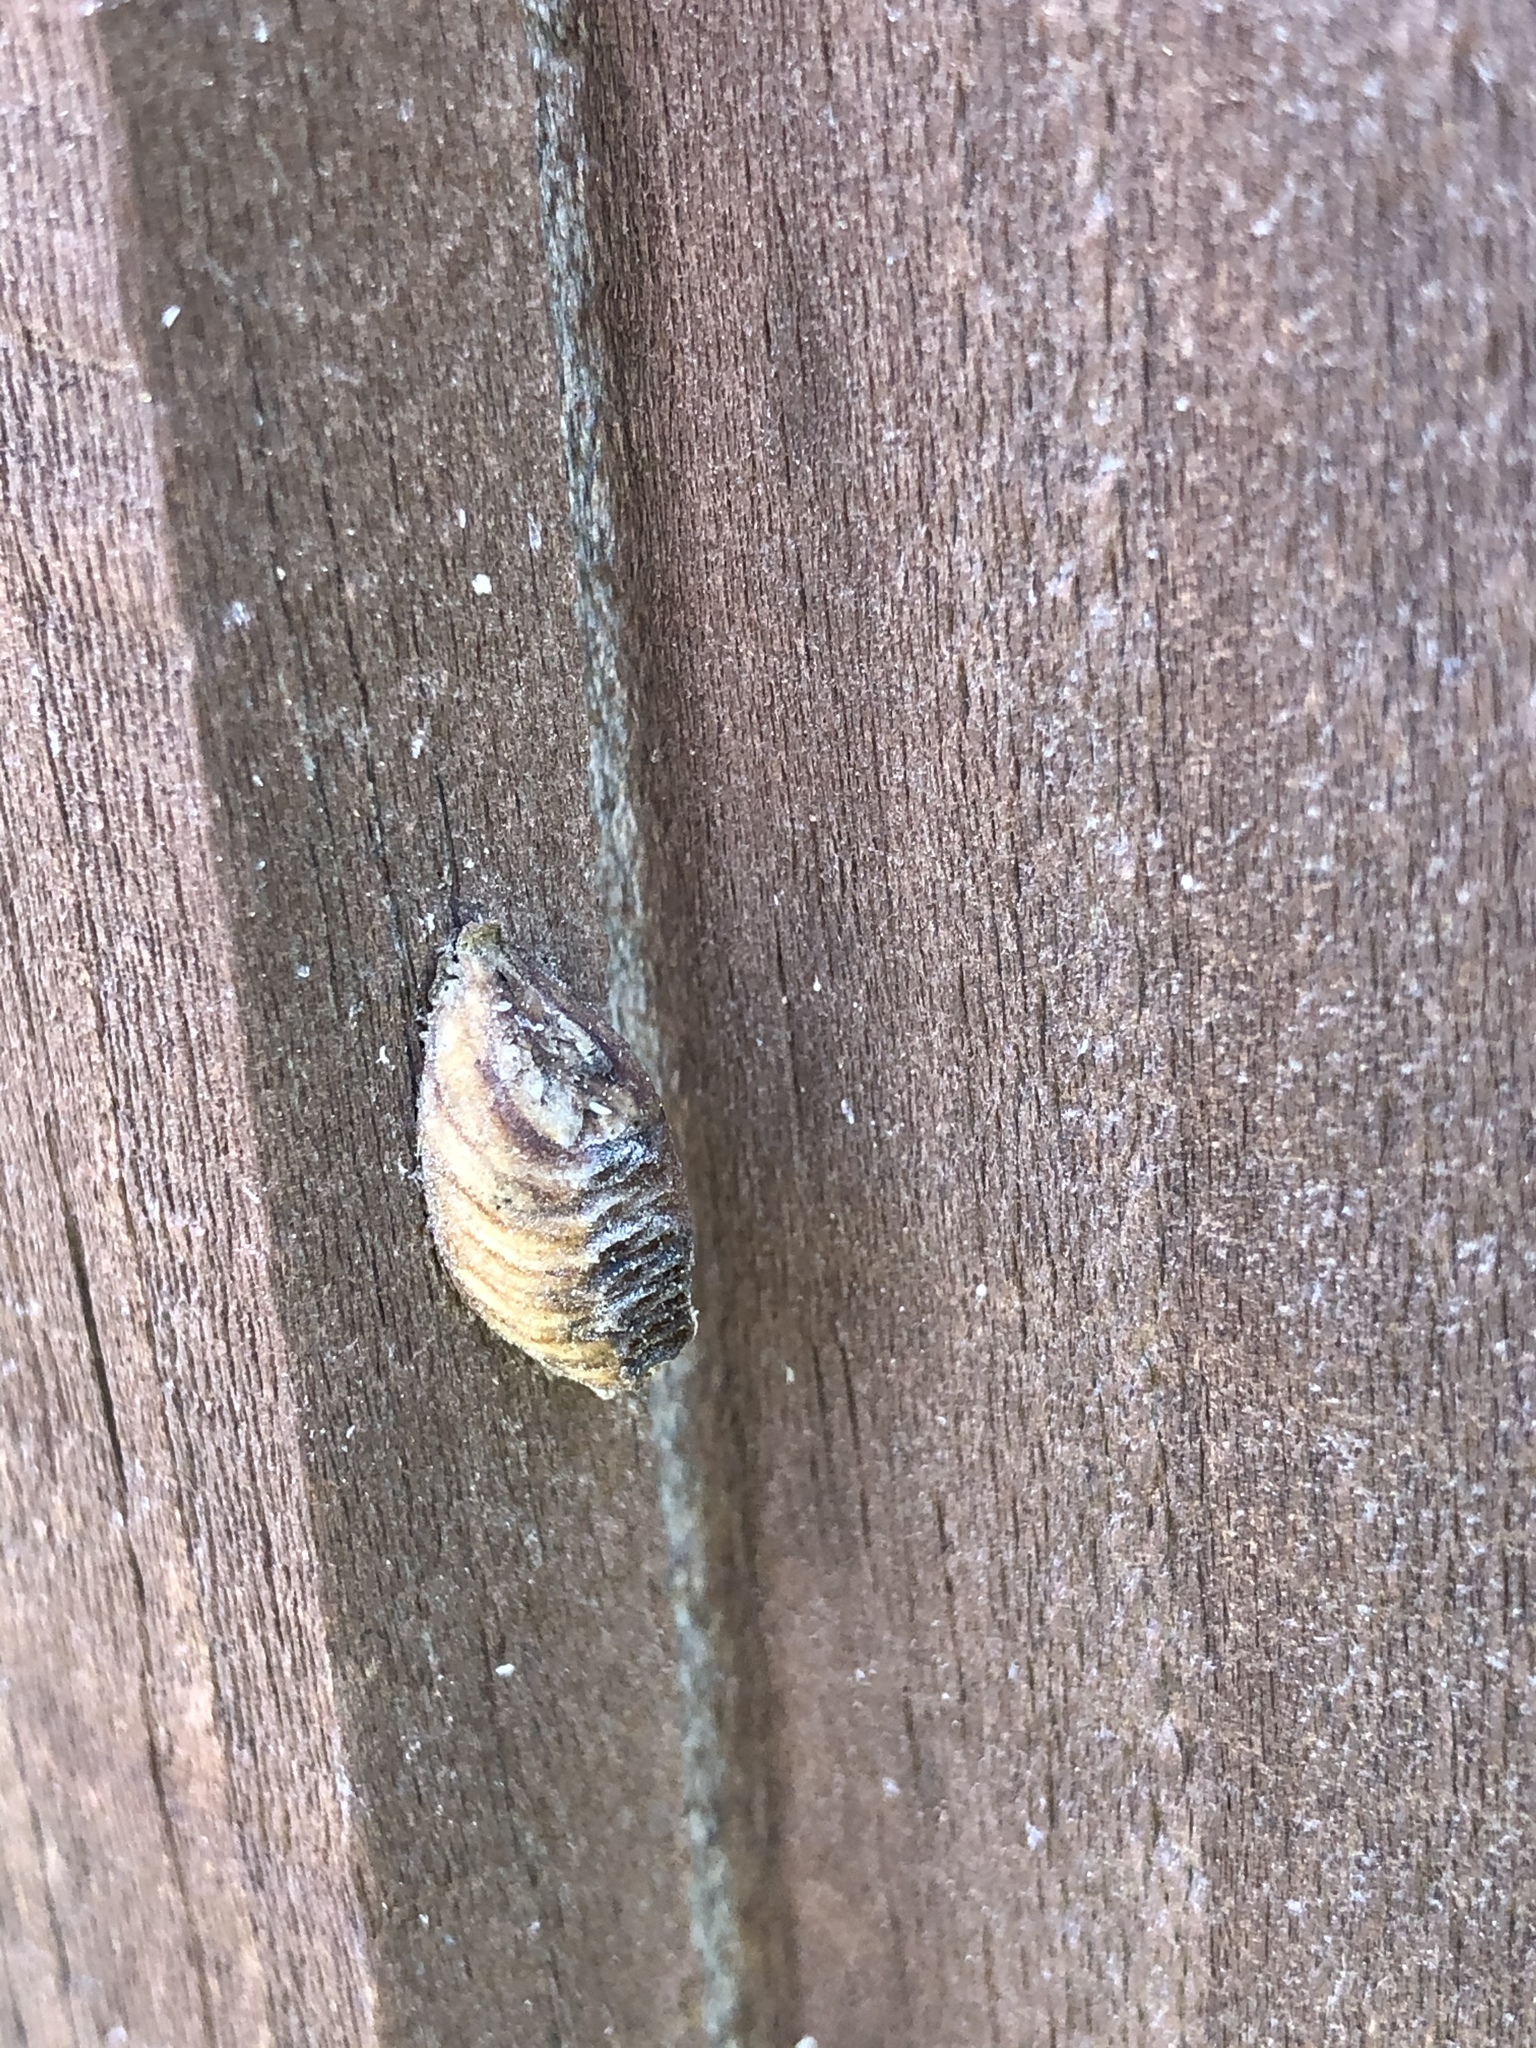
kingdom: Animalia
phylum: Arthropoda
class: Insecta
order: Mantodea
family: Mantidae
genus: Orthodera
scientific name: Orthodera novaezealandiae
